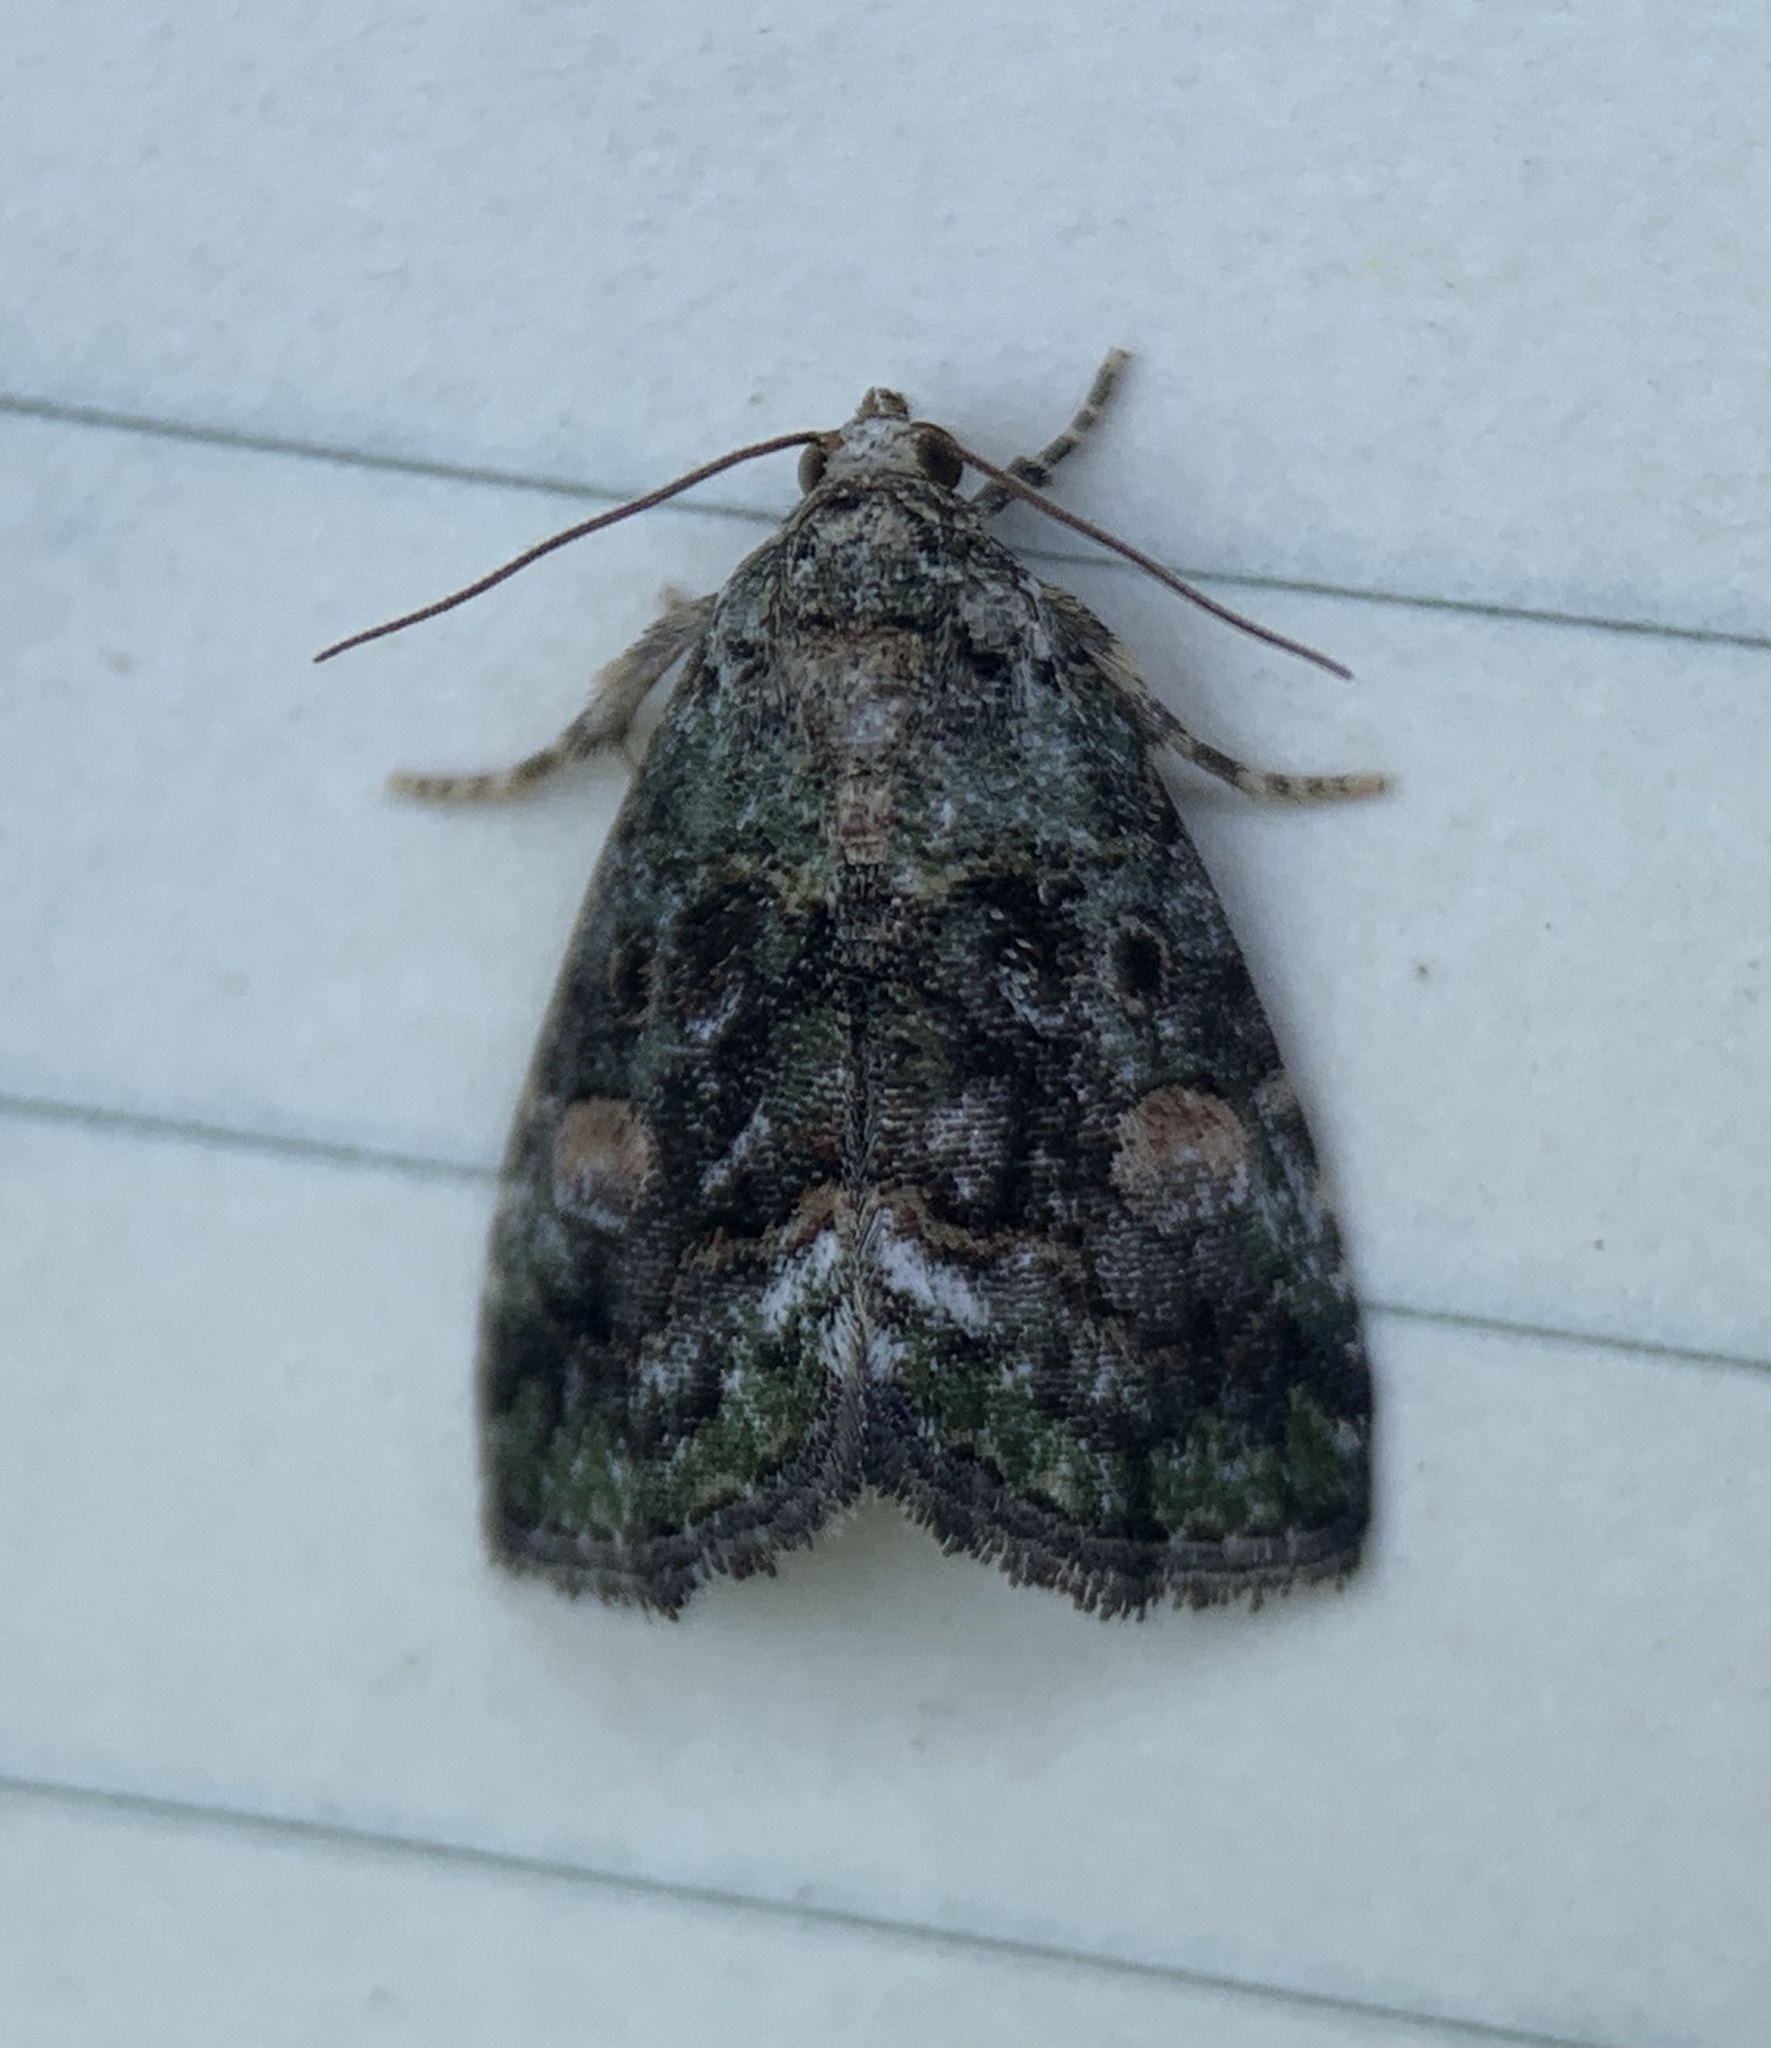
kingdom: Animalia
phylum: Arthropoda
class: Insecta
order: Lepidoptera
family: Noctuidae
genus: Lithacodia
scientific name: Lithacodia musta
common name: Small mossy glyph
